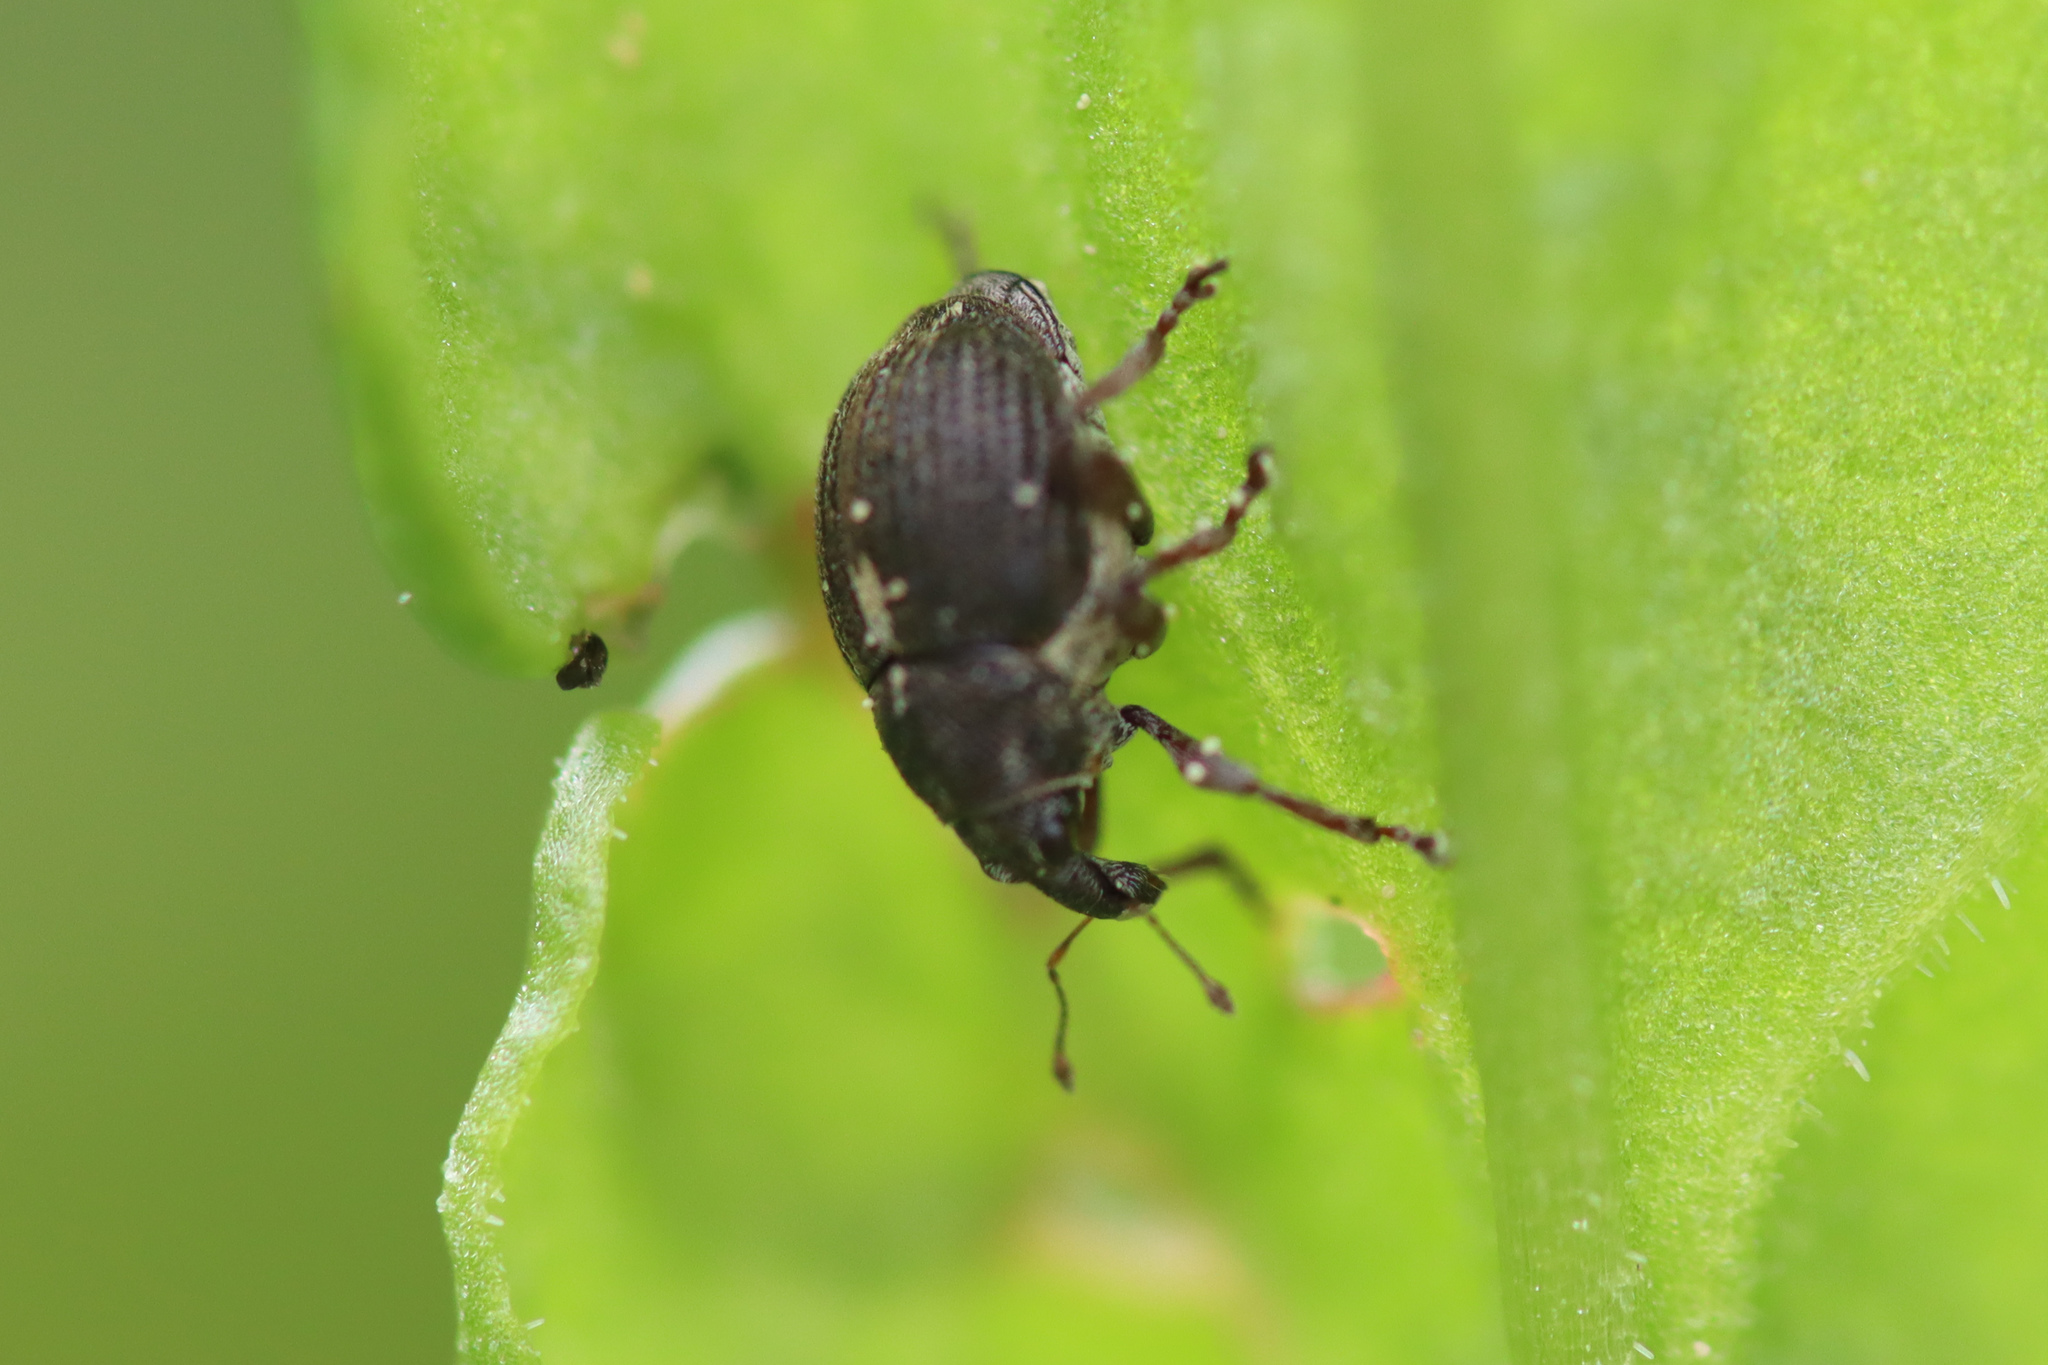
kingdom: Animalia
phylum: Arthropoda
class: Insecta
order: Coleoptera
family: Curculionidae
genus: Rhinoncus
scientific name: Rhinoncus leucostigma
